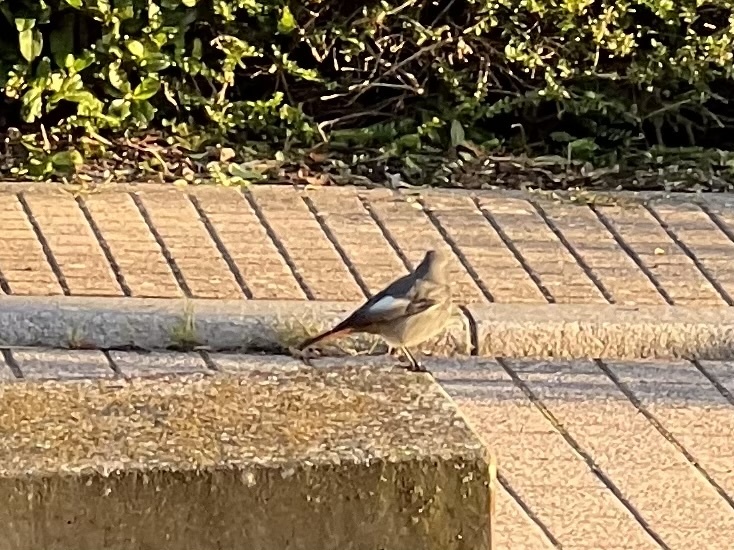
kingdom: Animalia
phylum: Chordata
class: Aves
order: Passeriformes
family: Muscicapidae
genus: Phoenicurus
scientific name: Phoenicurus ochruros
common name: Black redstart
